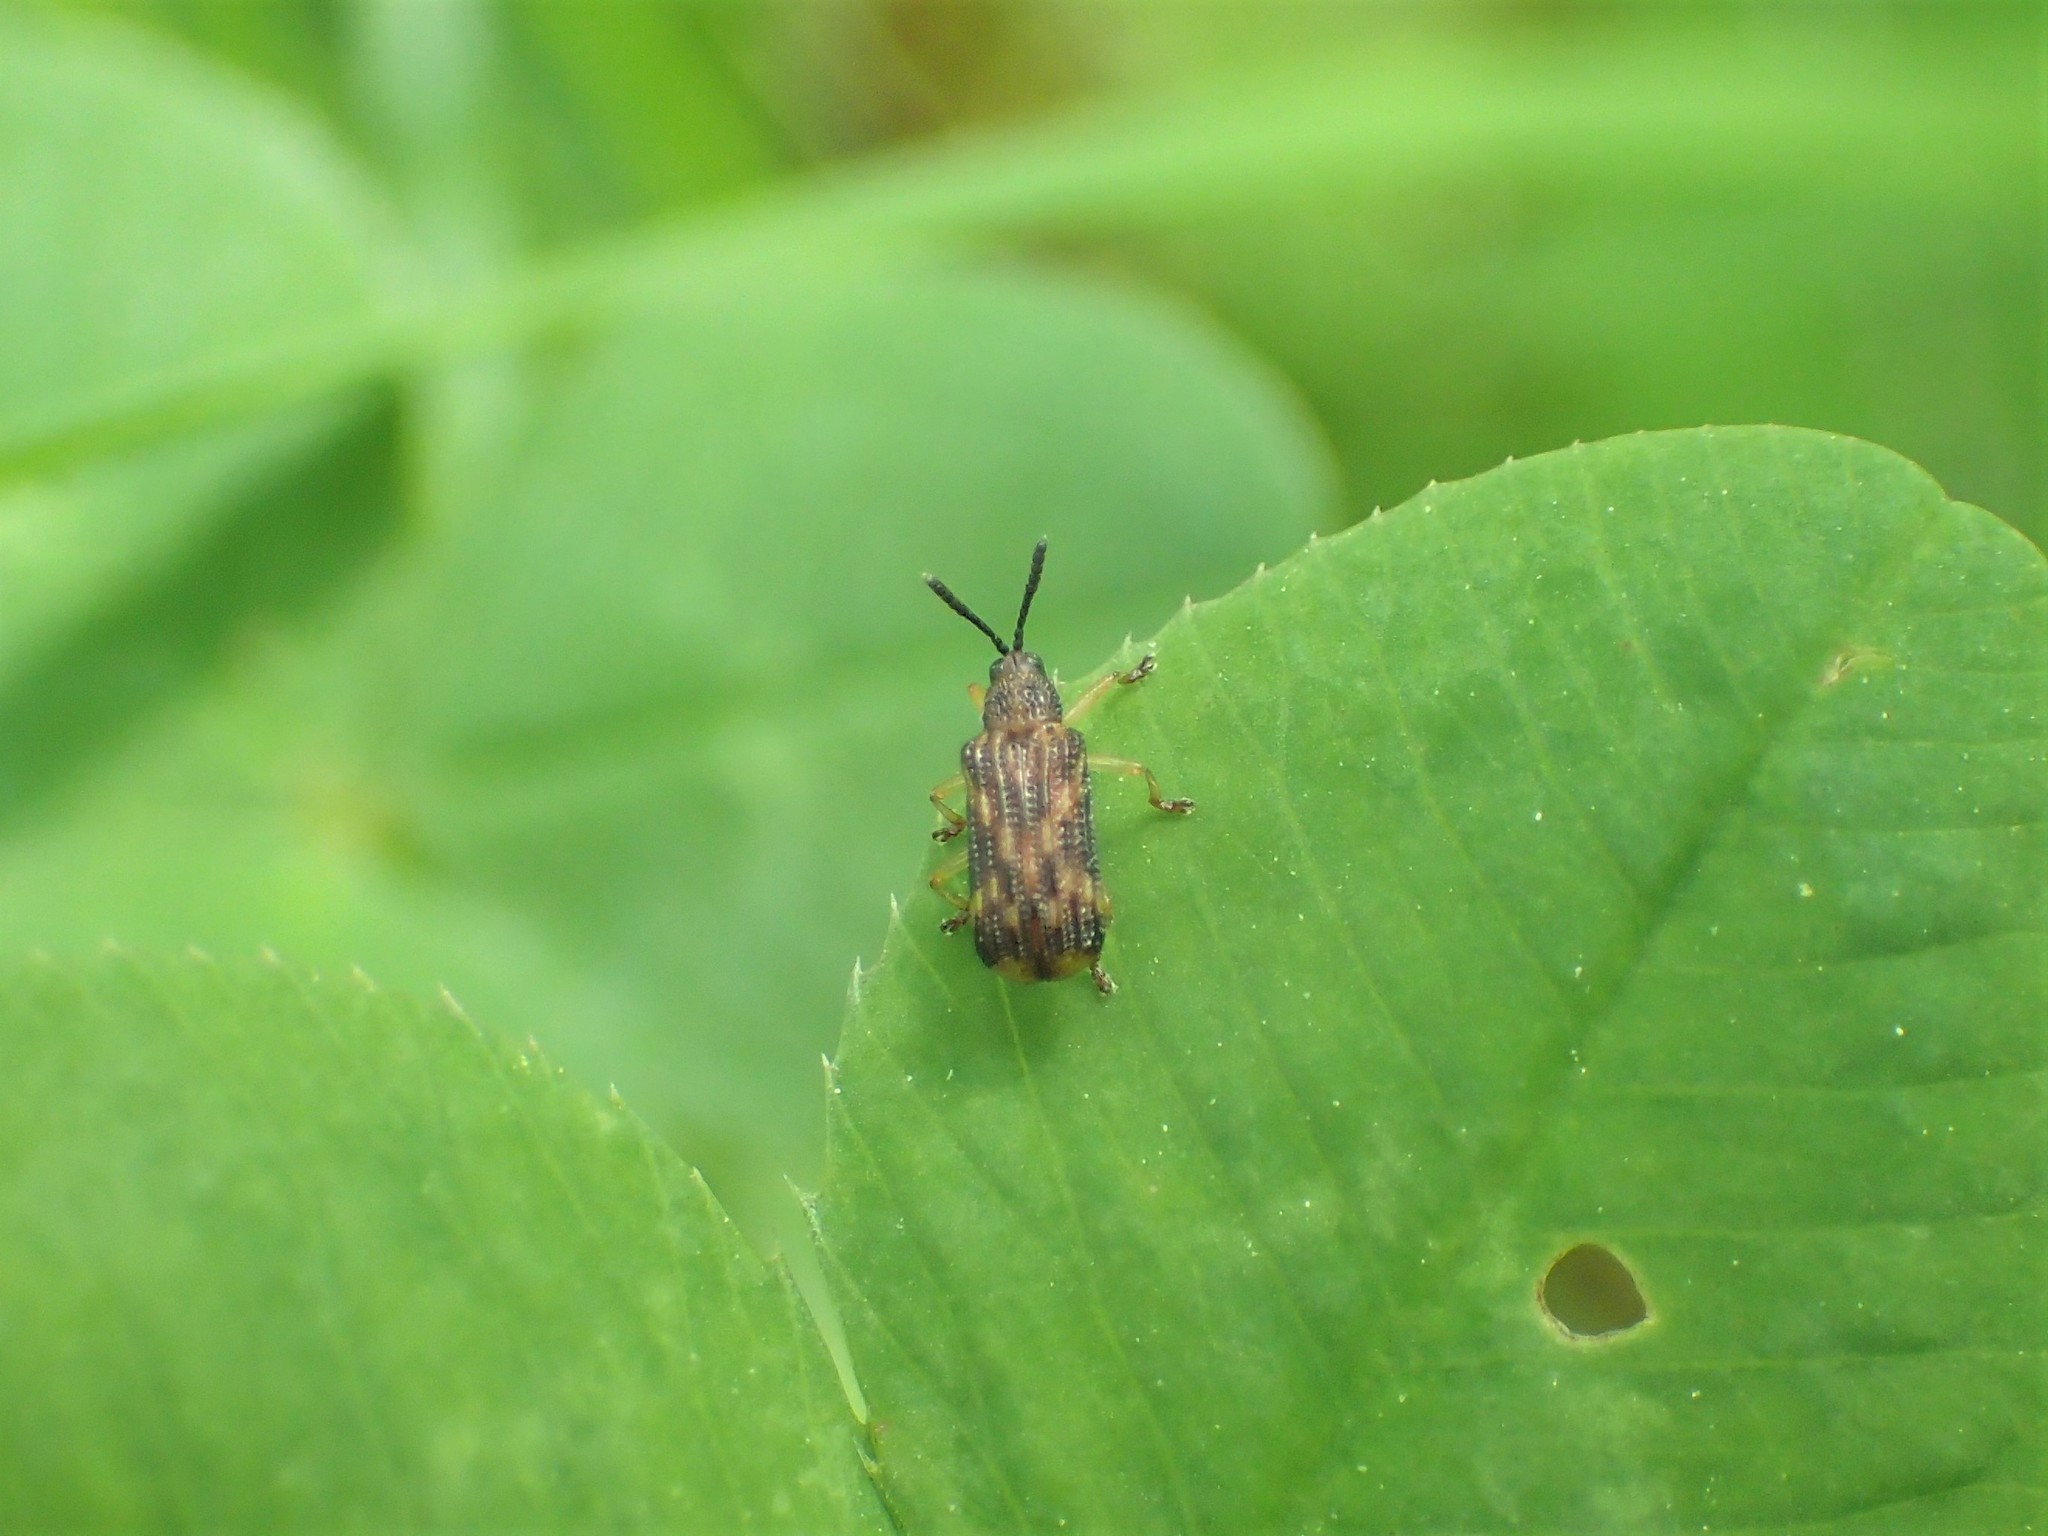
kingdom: Animalia
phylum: Arthropoda
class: Insecta
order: Coleoptera
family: Chrysomelidae
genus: Sumitrosis
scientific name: Sumitrosis inaequalis
